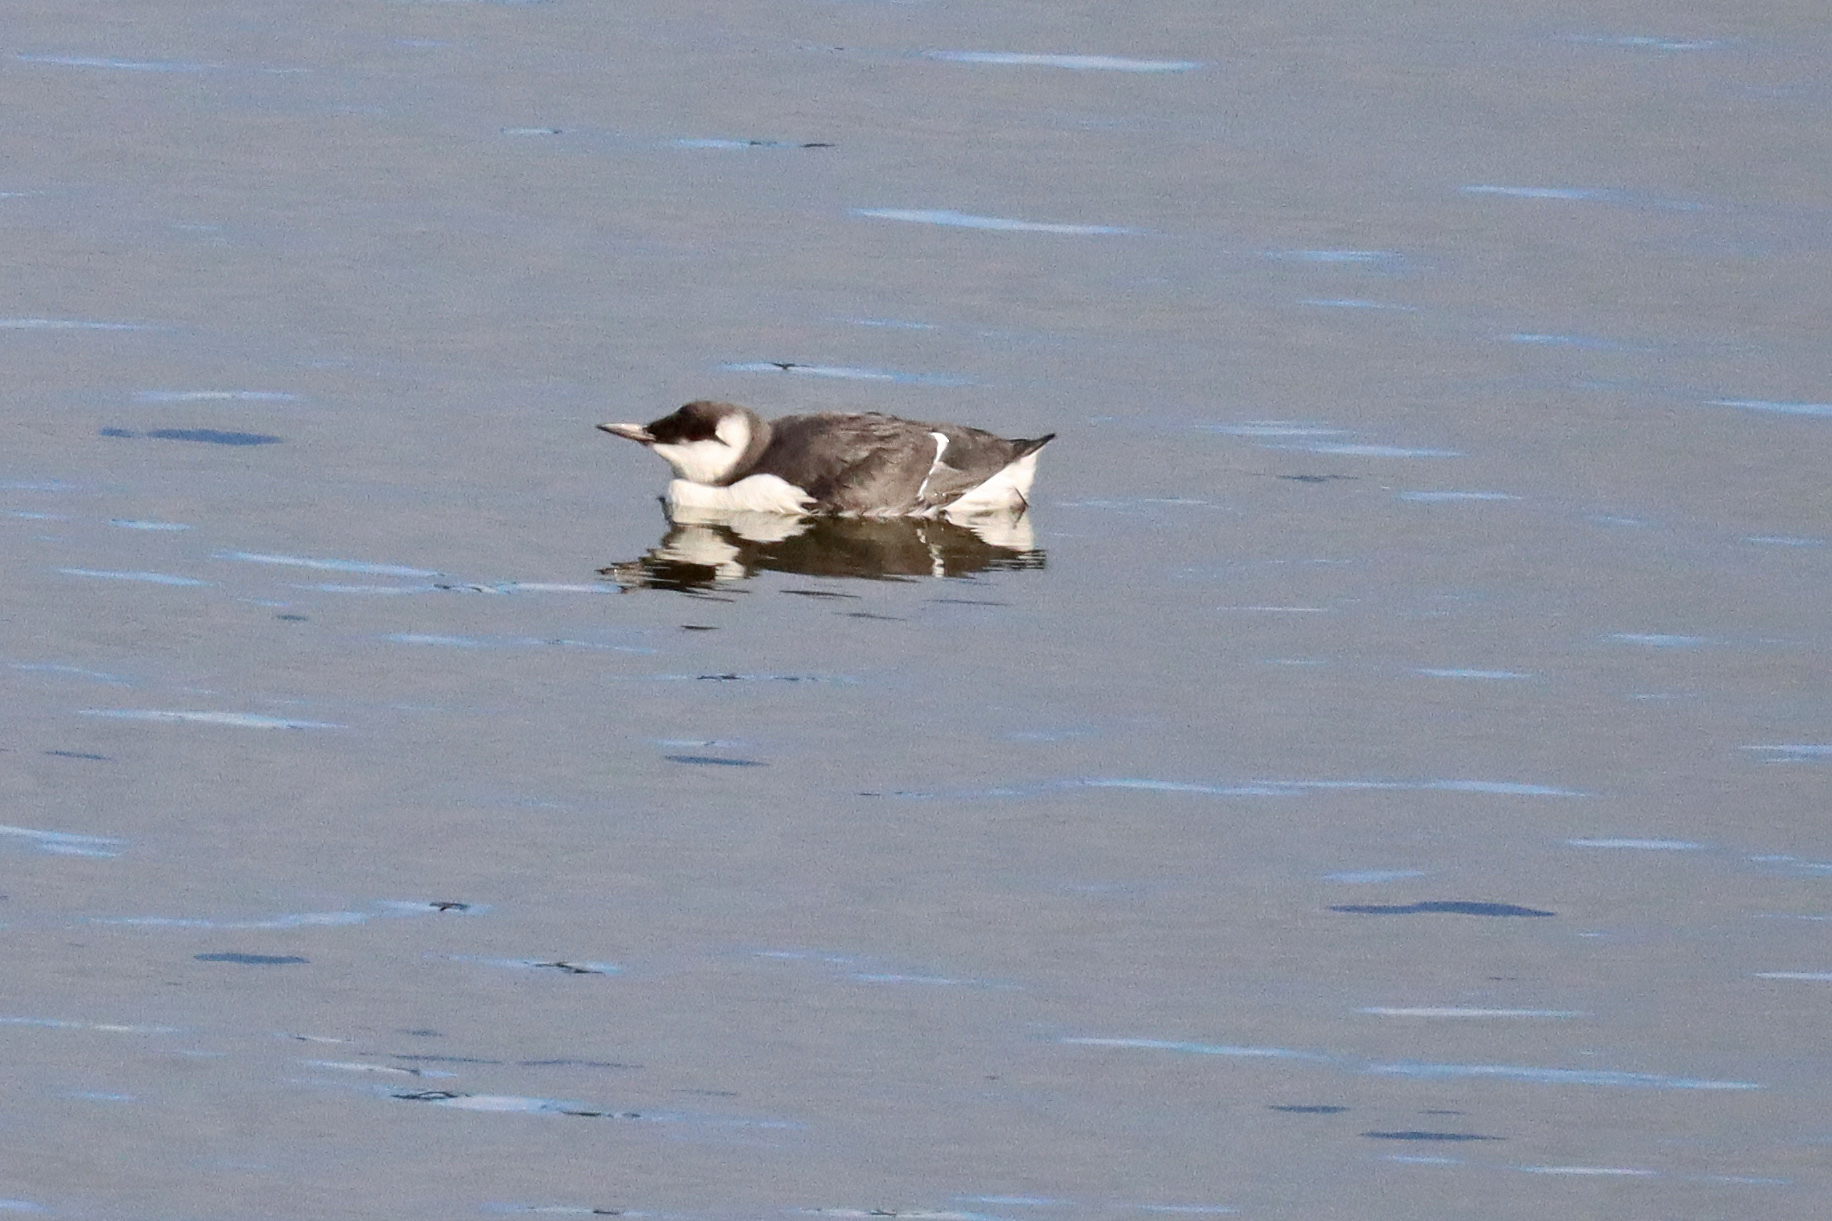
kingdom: Animalia
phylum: Chordata
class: Aves
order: Charadriiformes
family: Alcidae
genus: Uria
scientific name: Uria aalge
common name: Common murre
